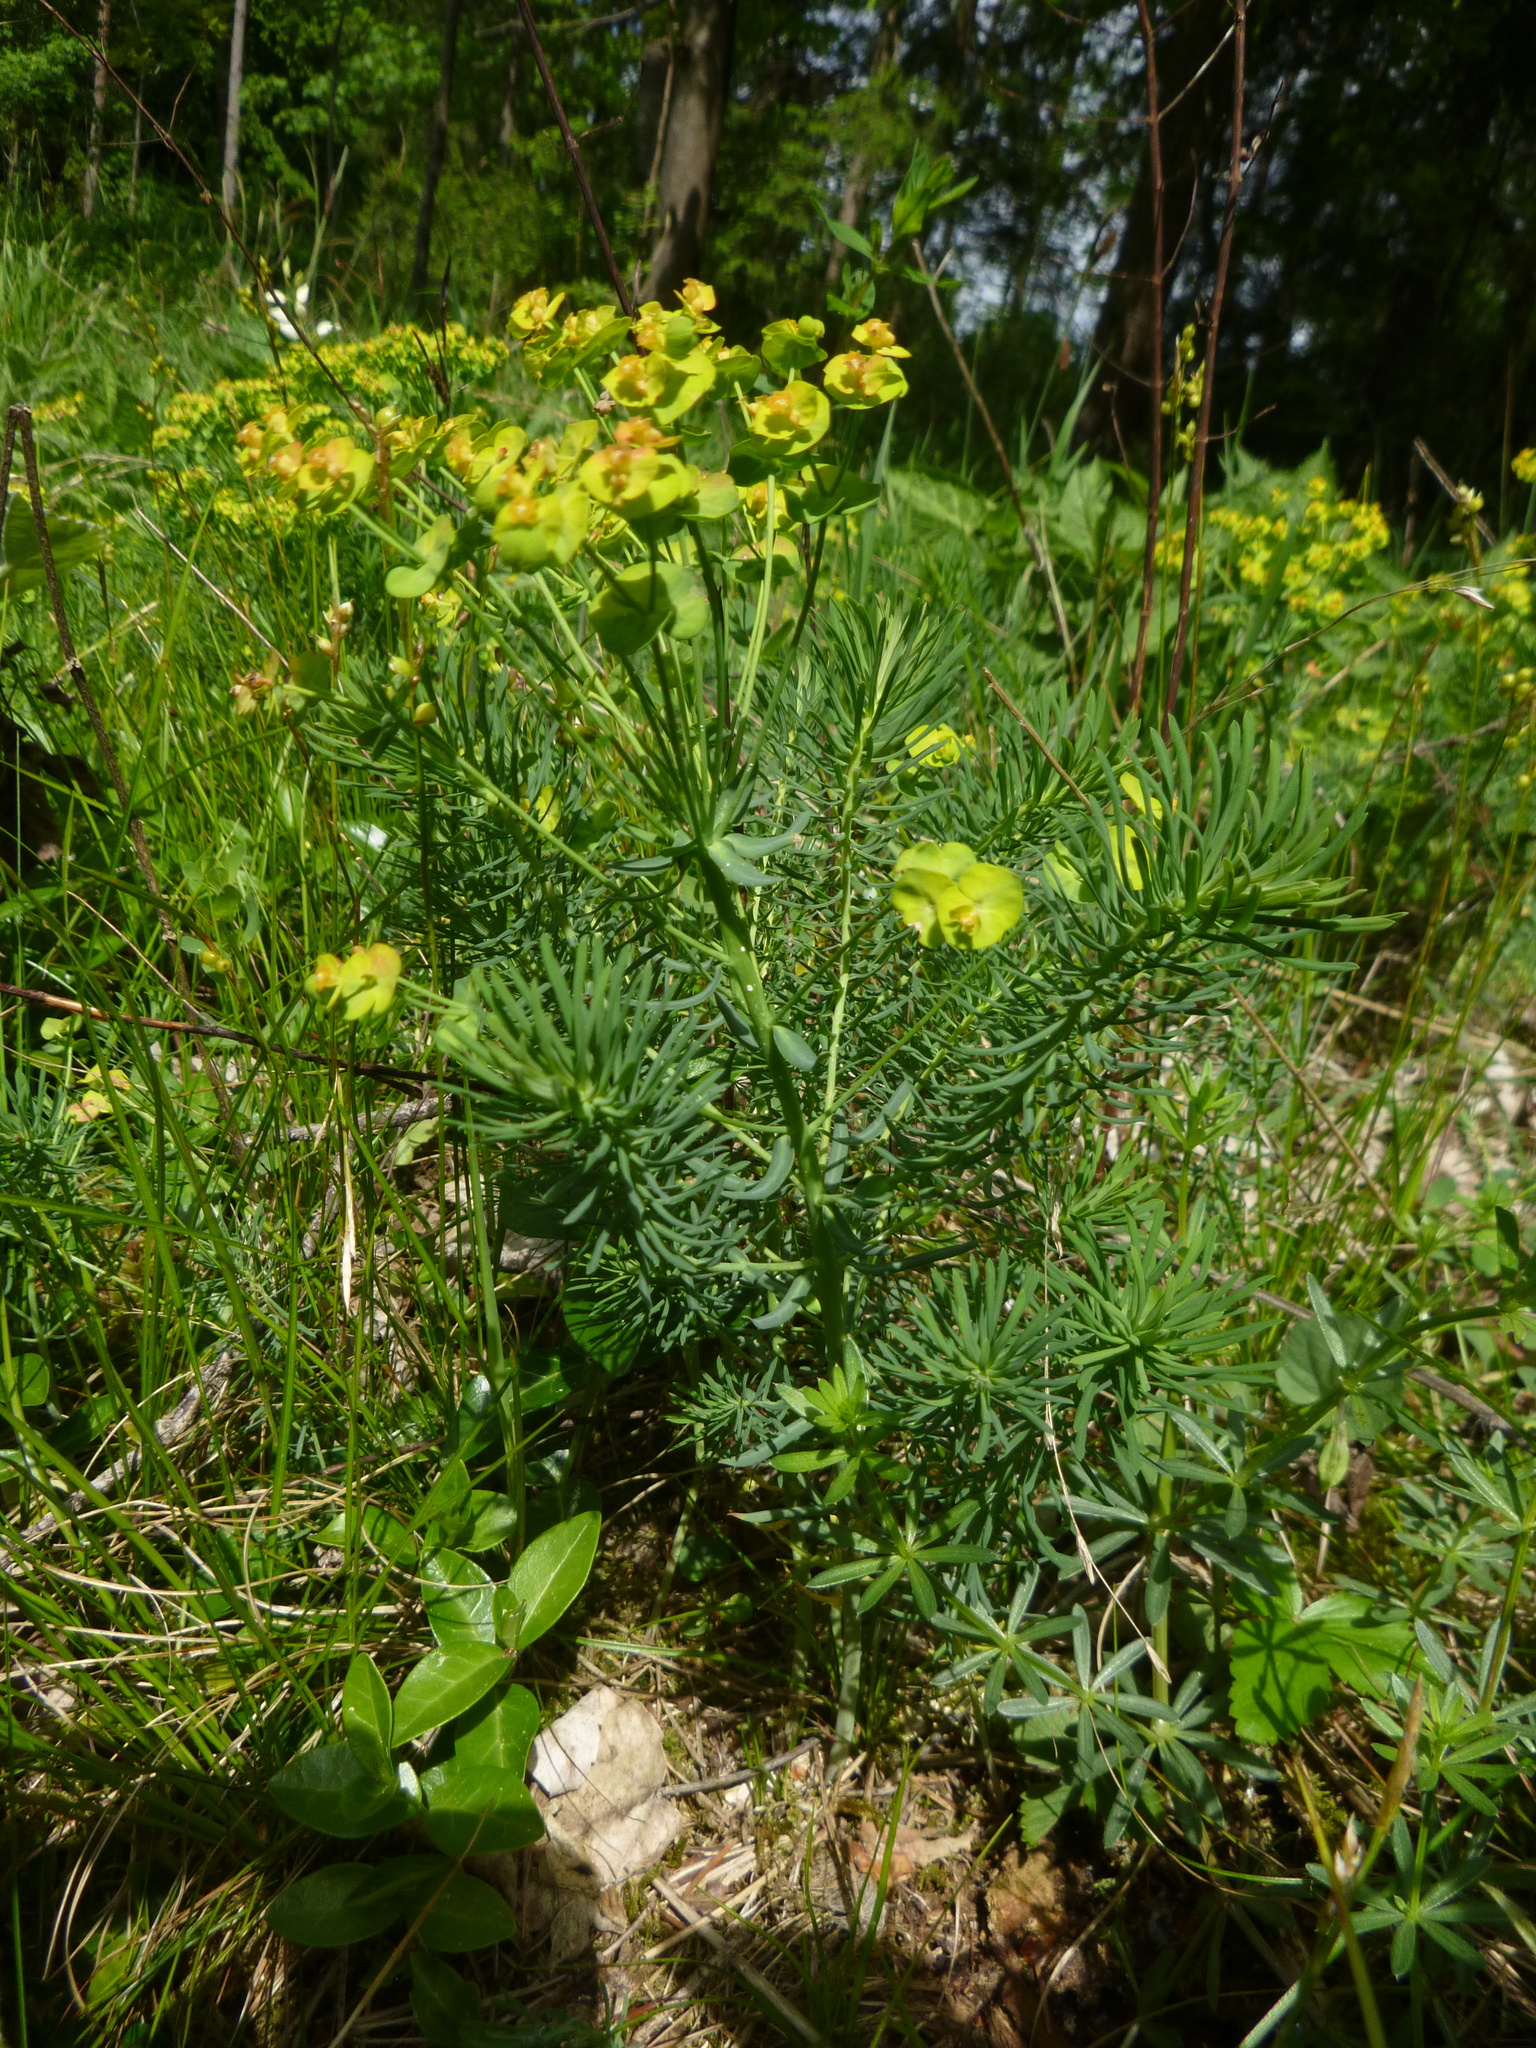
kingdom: Plantae
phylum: Tracheophyta
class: Magnoliopsida
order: Malpighiales
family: Euphorbiaceae
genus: Euphorbia
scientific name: Euphorbia cyparissias
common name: Cypress spurge
